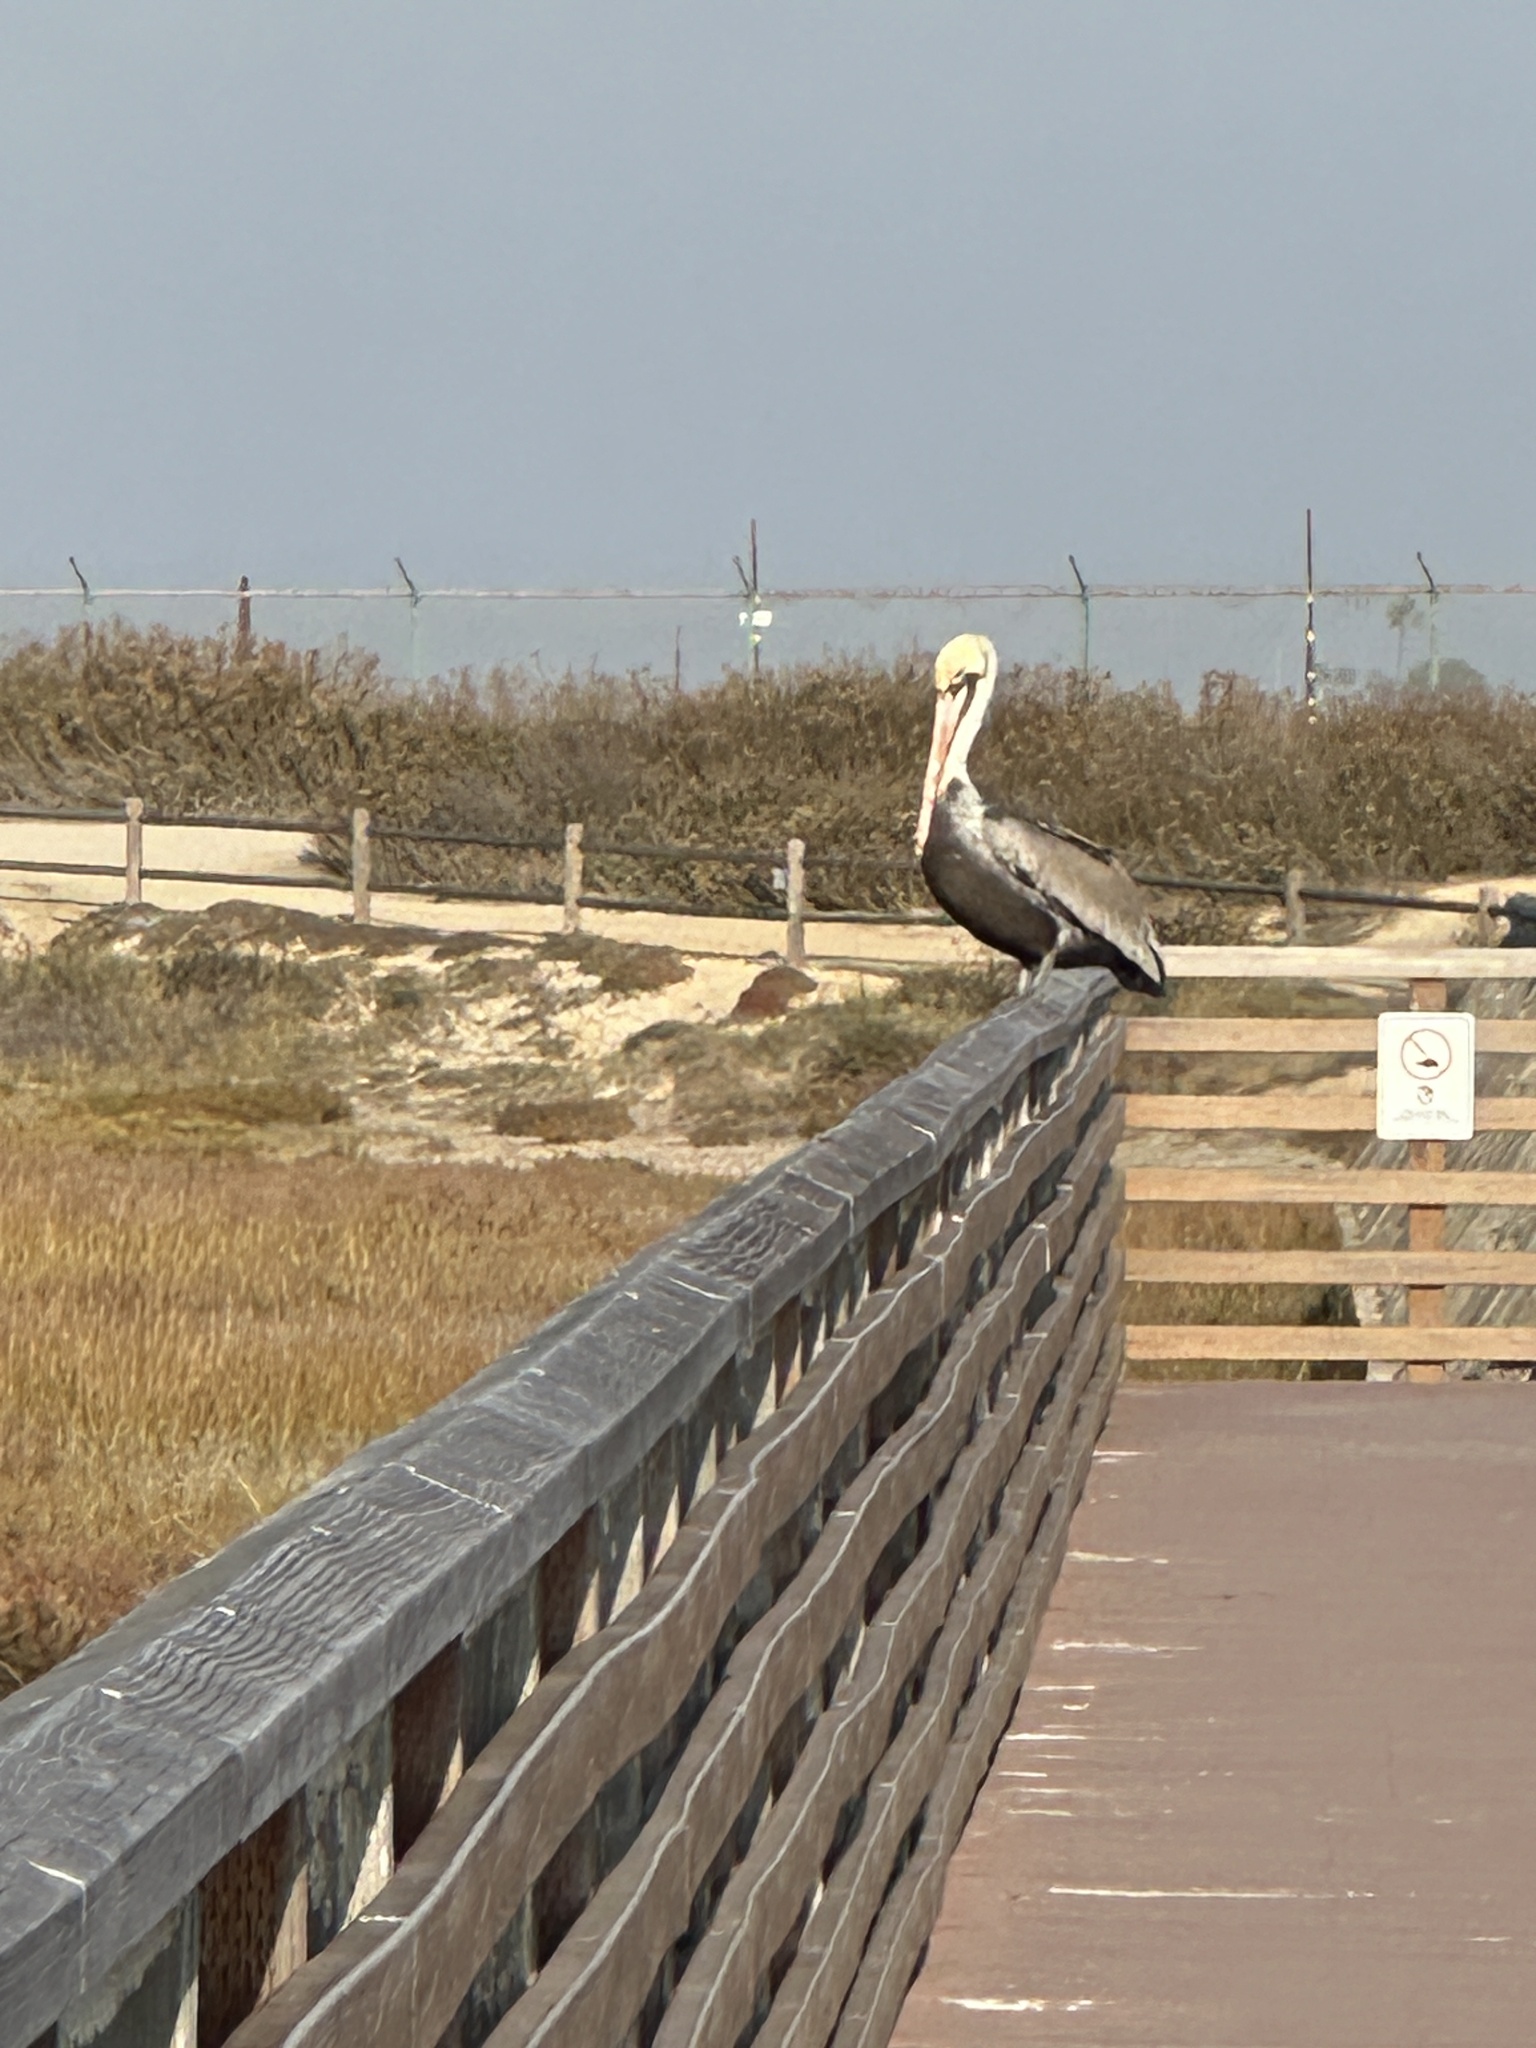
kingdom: Animalia
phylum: Chordata
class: Aves
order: Pelecaniformes
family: Pelecanidae
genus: Pelecanus
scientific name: Pelecanus occidentalis
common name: Brown pelican
